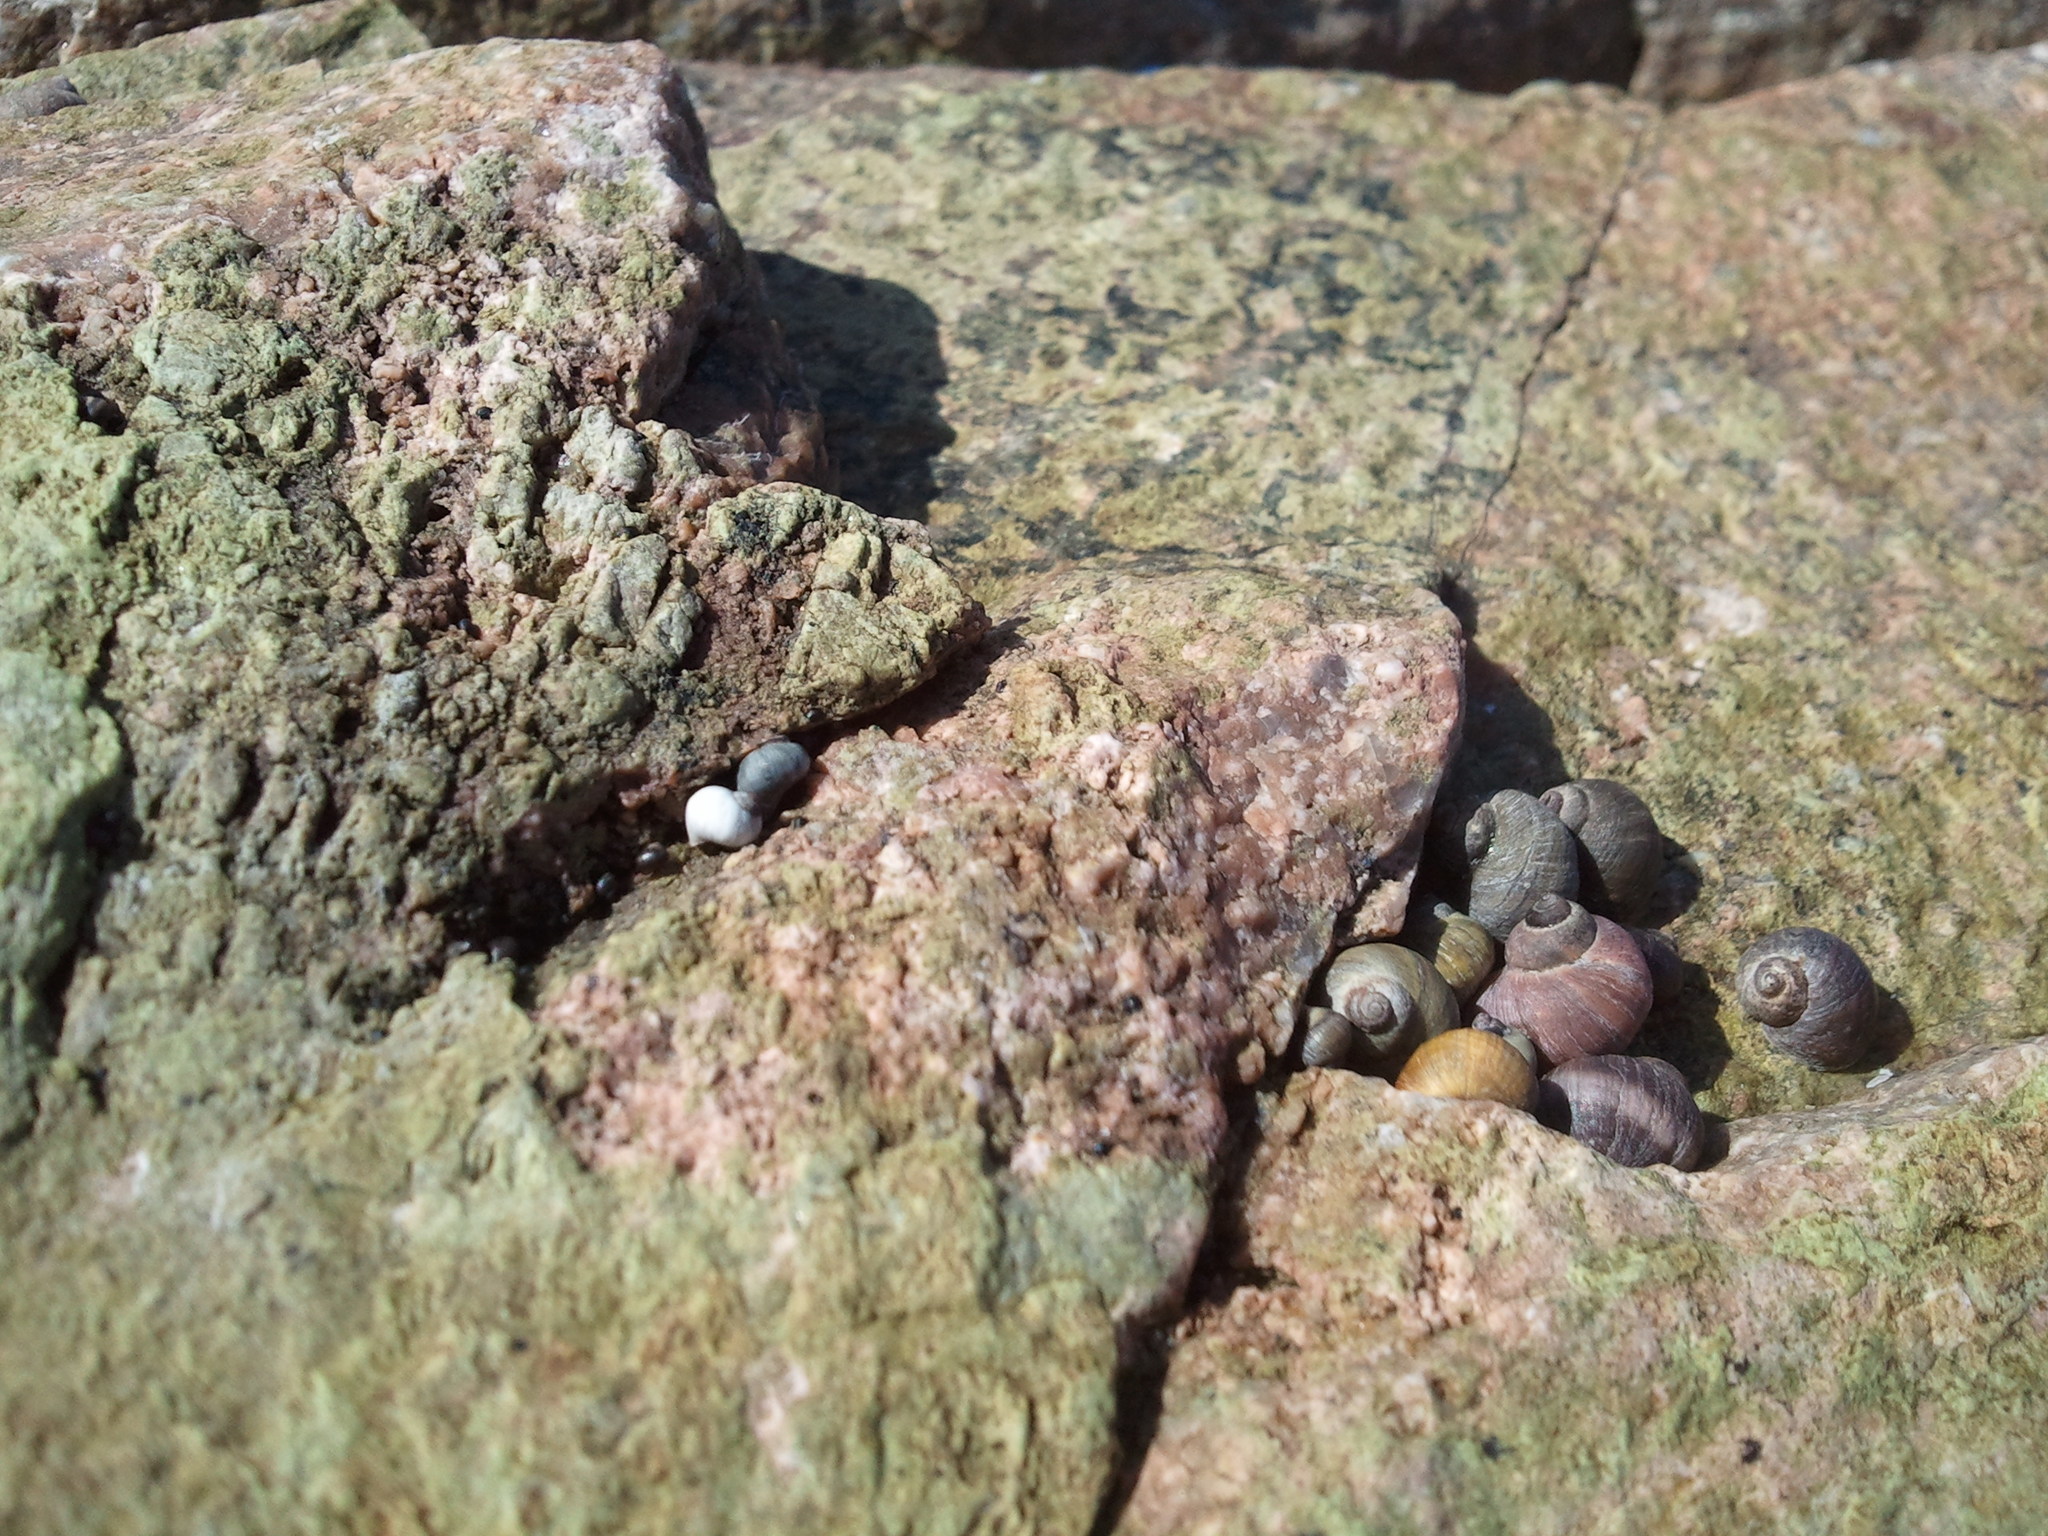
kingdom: Animalia
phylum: Mollusca
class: Gastropoda
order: Littorinimorpha
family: Littorinidae
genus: Littorina
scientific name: Littorina saxatilis
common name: Black-lined periwinkle
